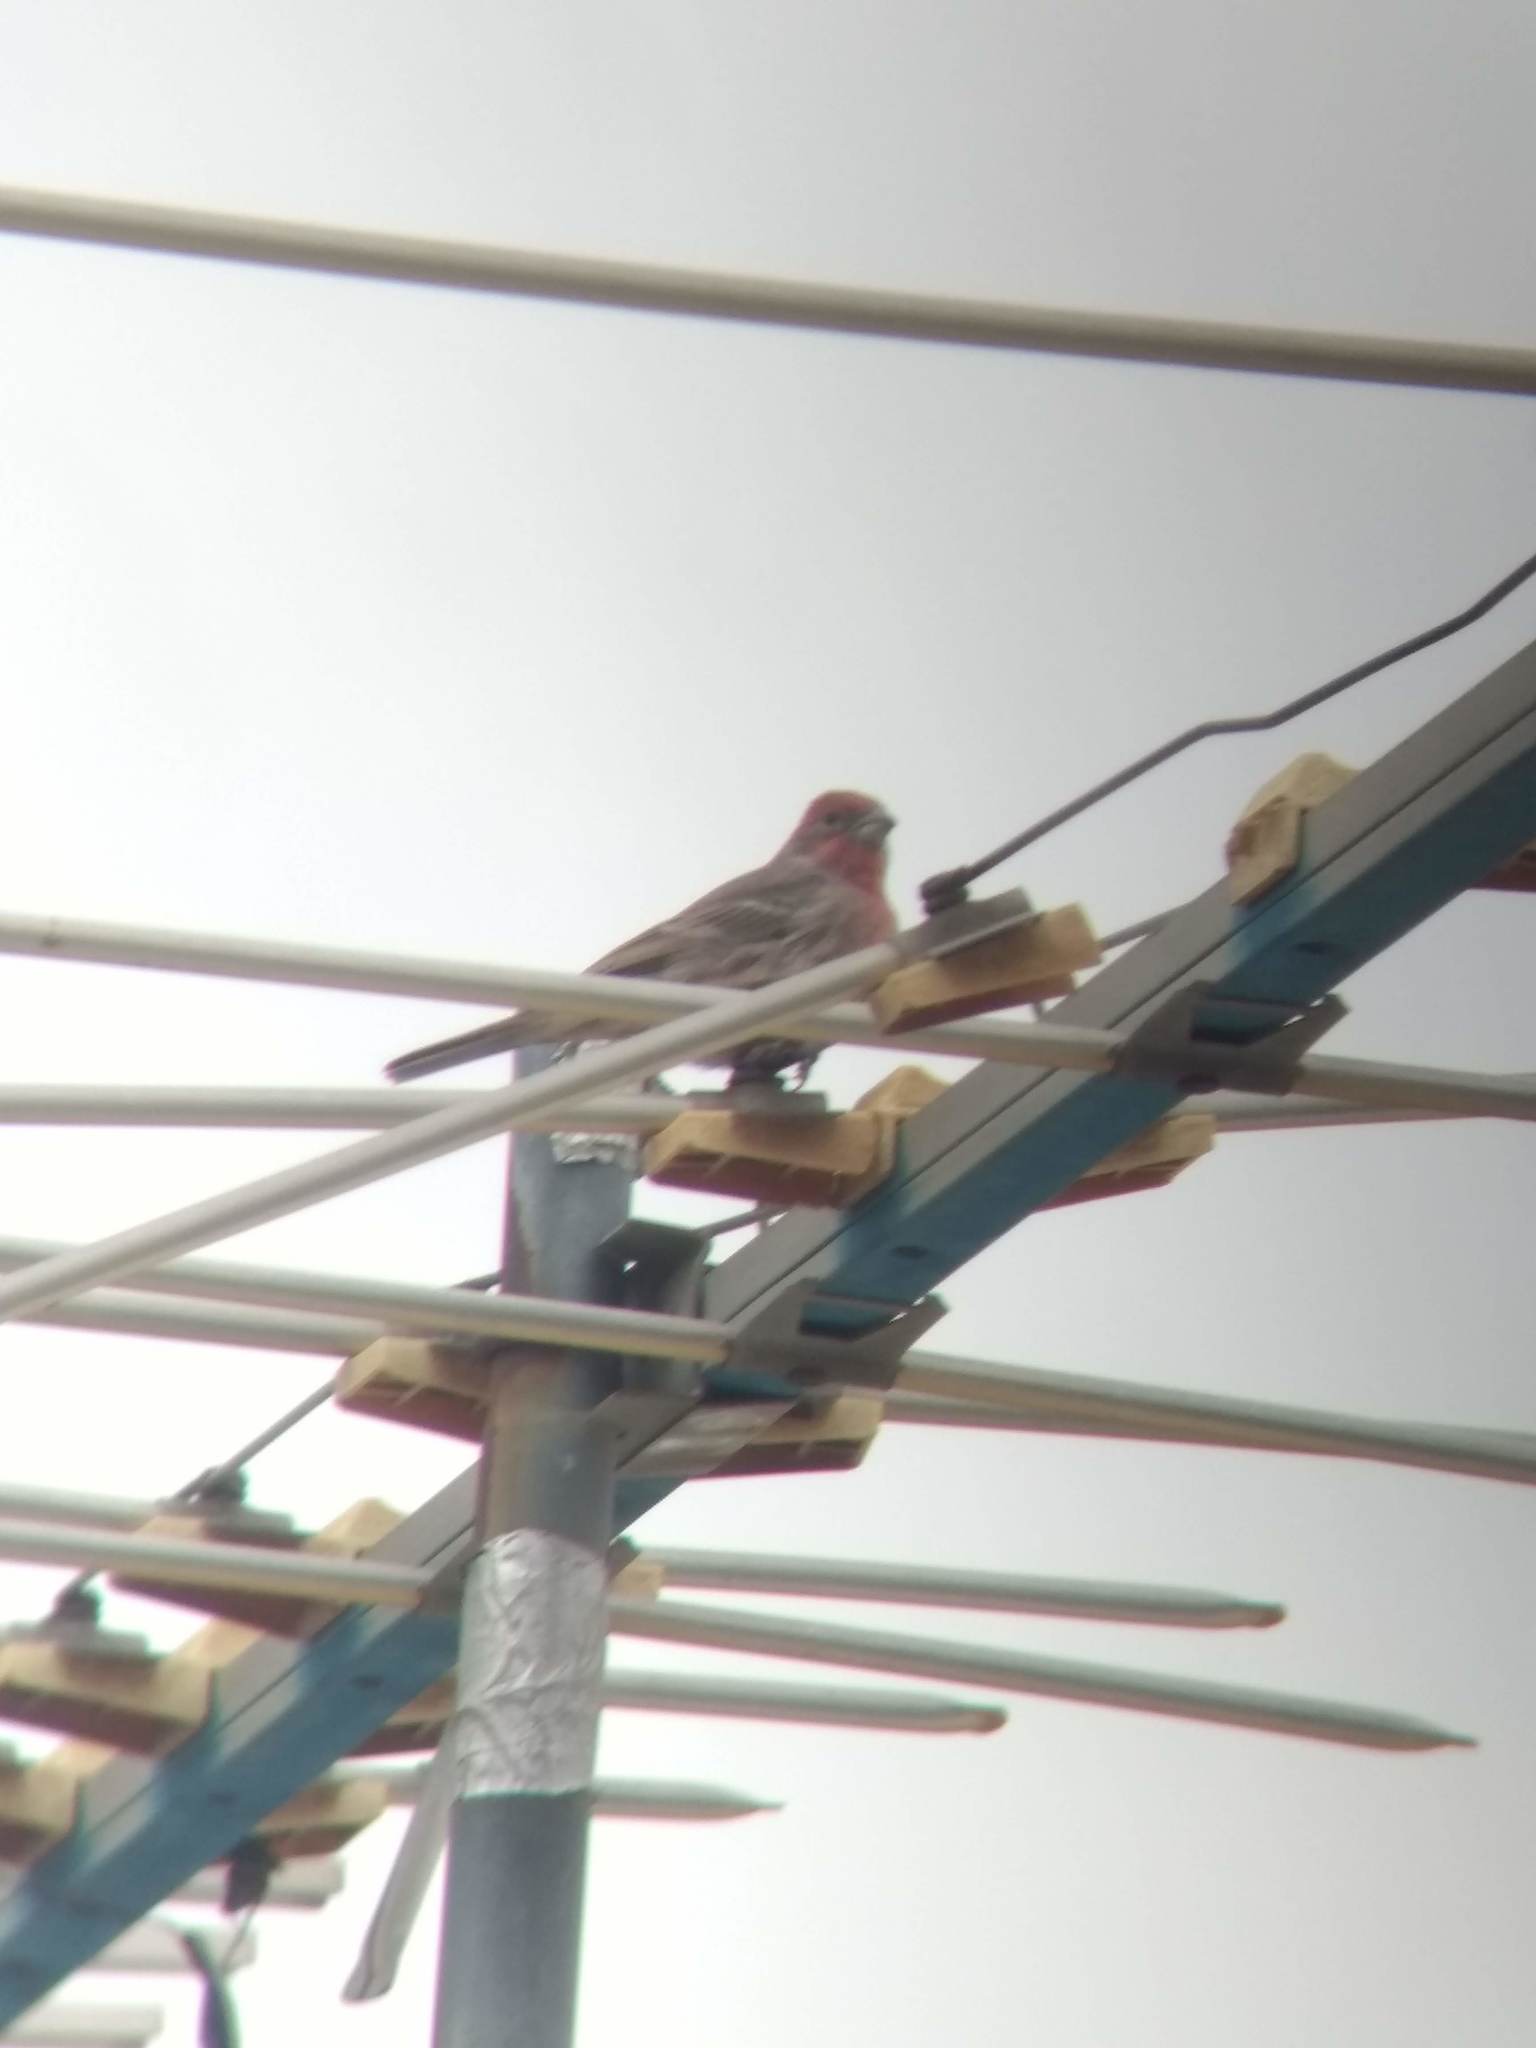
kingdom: Animalia
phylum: Chordata
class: Aves
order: Passeriformes
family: Fringillidae
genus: Haemorhous
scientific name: Haemorhous mexicanus
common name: House finch
